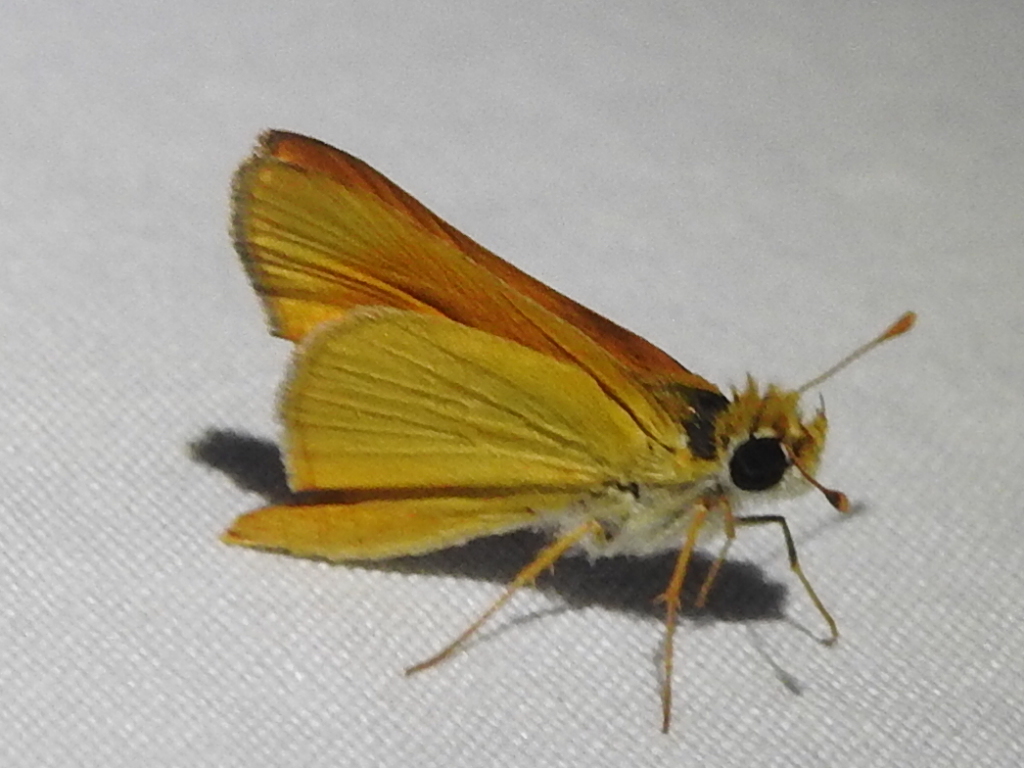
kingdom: Animalia
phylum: Arthropoda
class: Insecta
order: Lepidoptera
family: Hesperiidae
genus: Copaeodes
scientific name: Copaeodes aurantiaca
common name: Orange skipperling
